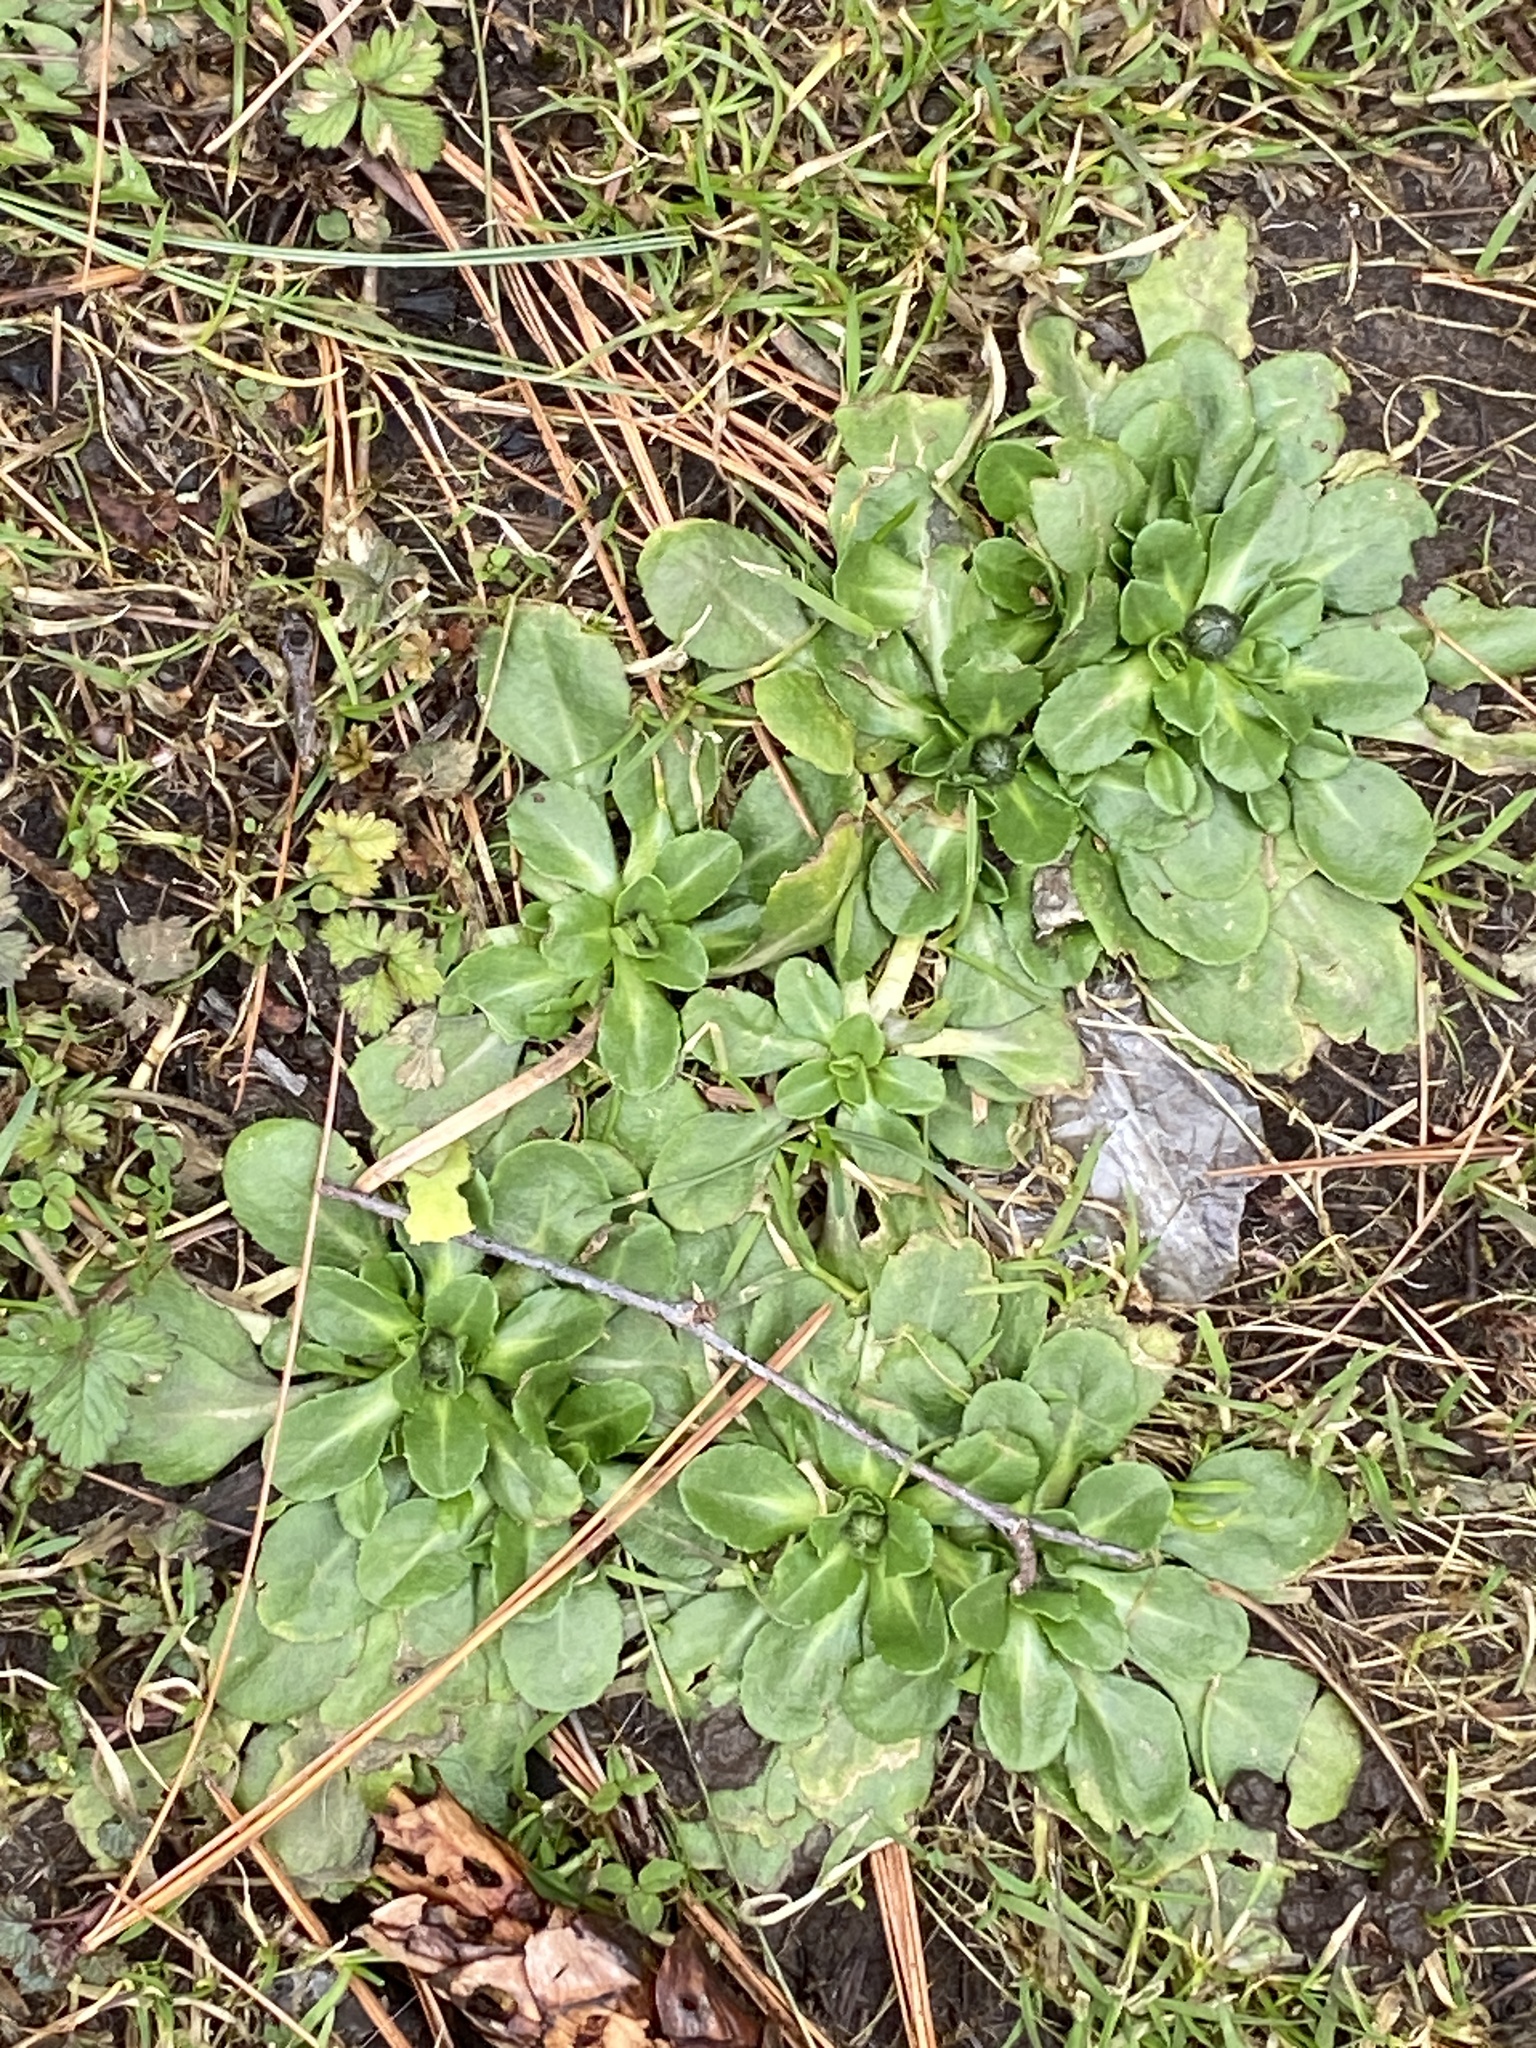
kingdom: Plantae
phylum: Tracheophyta
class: Magnoliopsida
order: Asterales
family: Asteraceae
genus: Bellis
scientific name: Bellis perennis
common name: Lawndaisy
